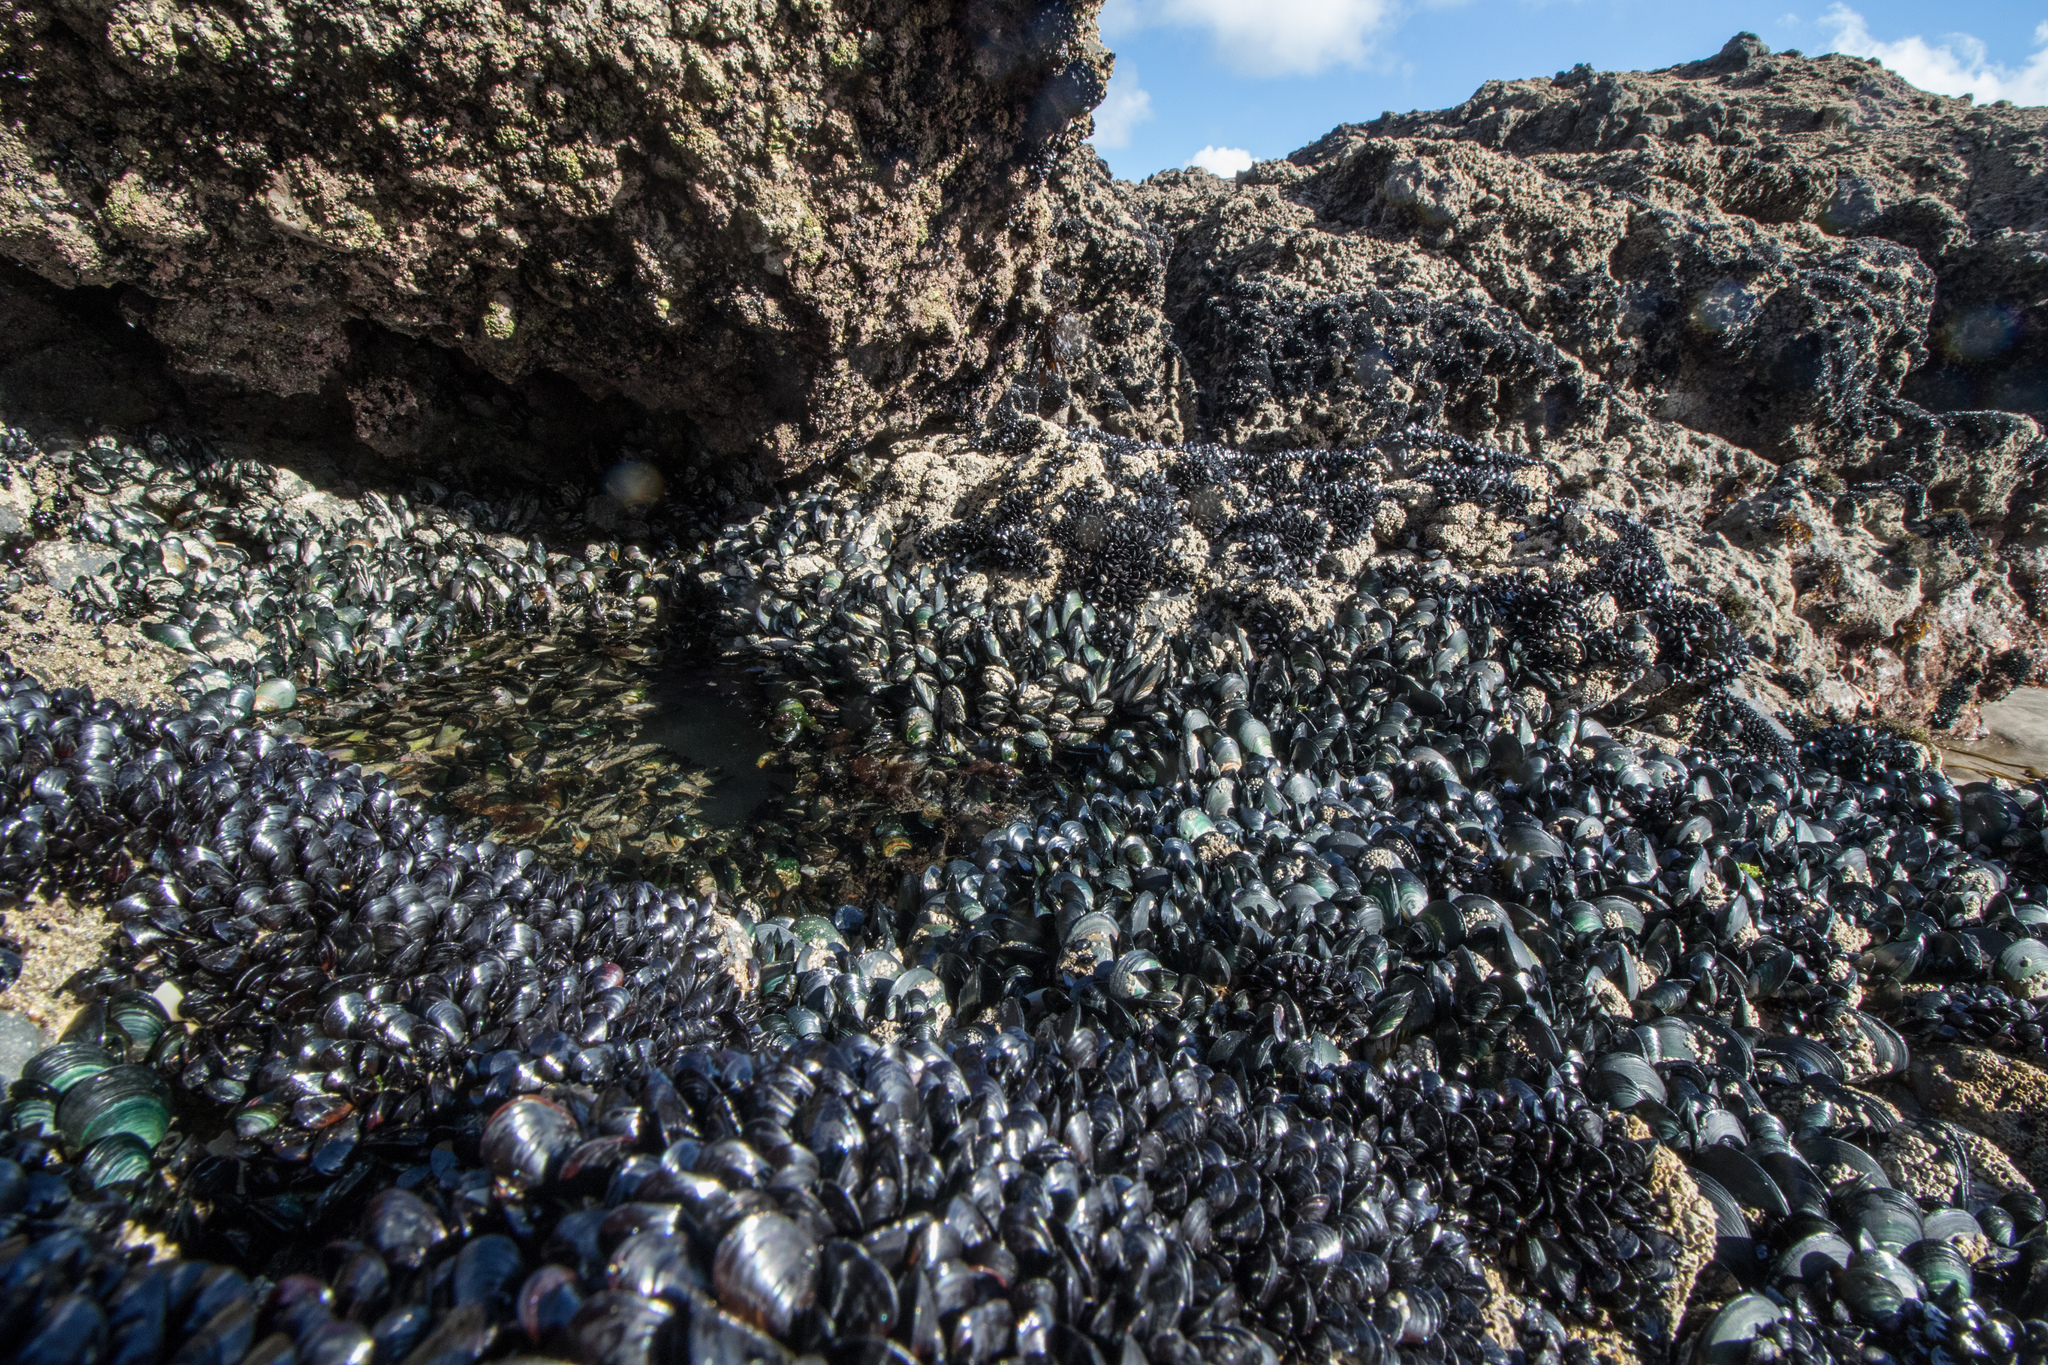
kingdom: Animalia
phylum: Mollusca
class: Bivalvia
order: Mytilida
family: Mytilidae
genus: Perna
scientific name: Perna canaliculus
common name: New zealand greenshelltm
